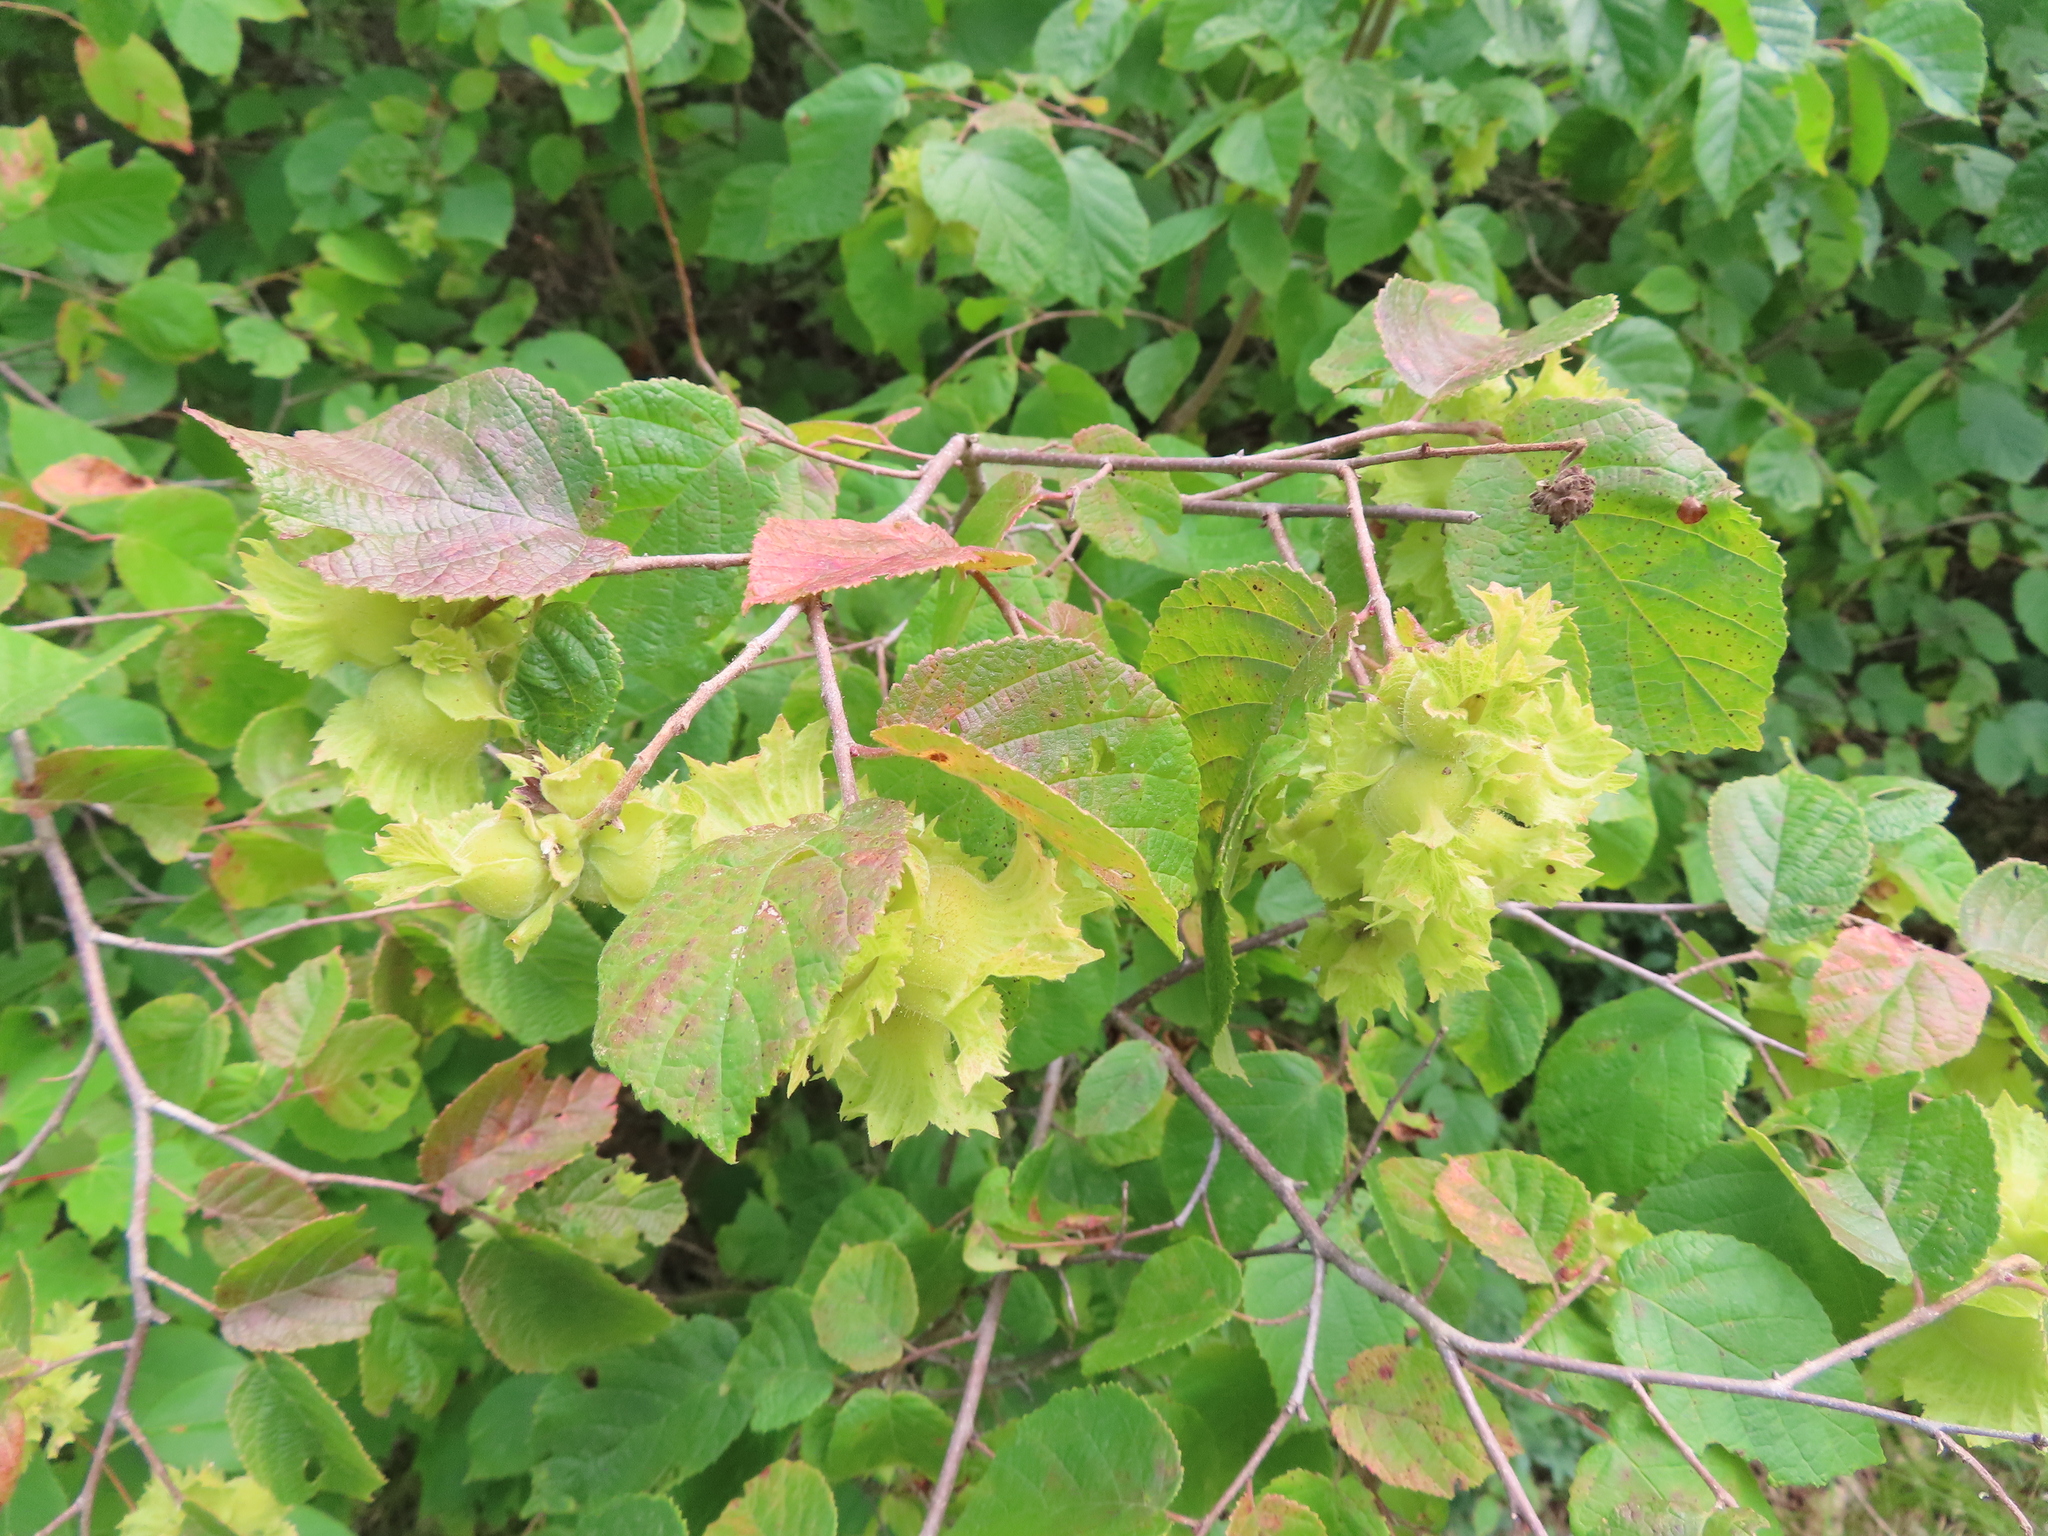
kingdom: Plantae
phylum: Tracheophyta
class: Magnoliopsida
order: Fagales
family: Betulaceae
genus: Corylus
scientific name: Corylus americana
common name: American hazel
